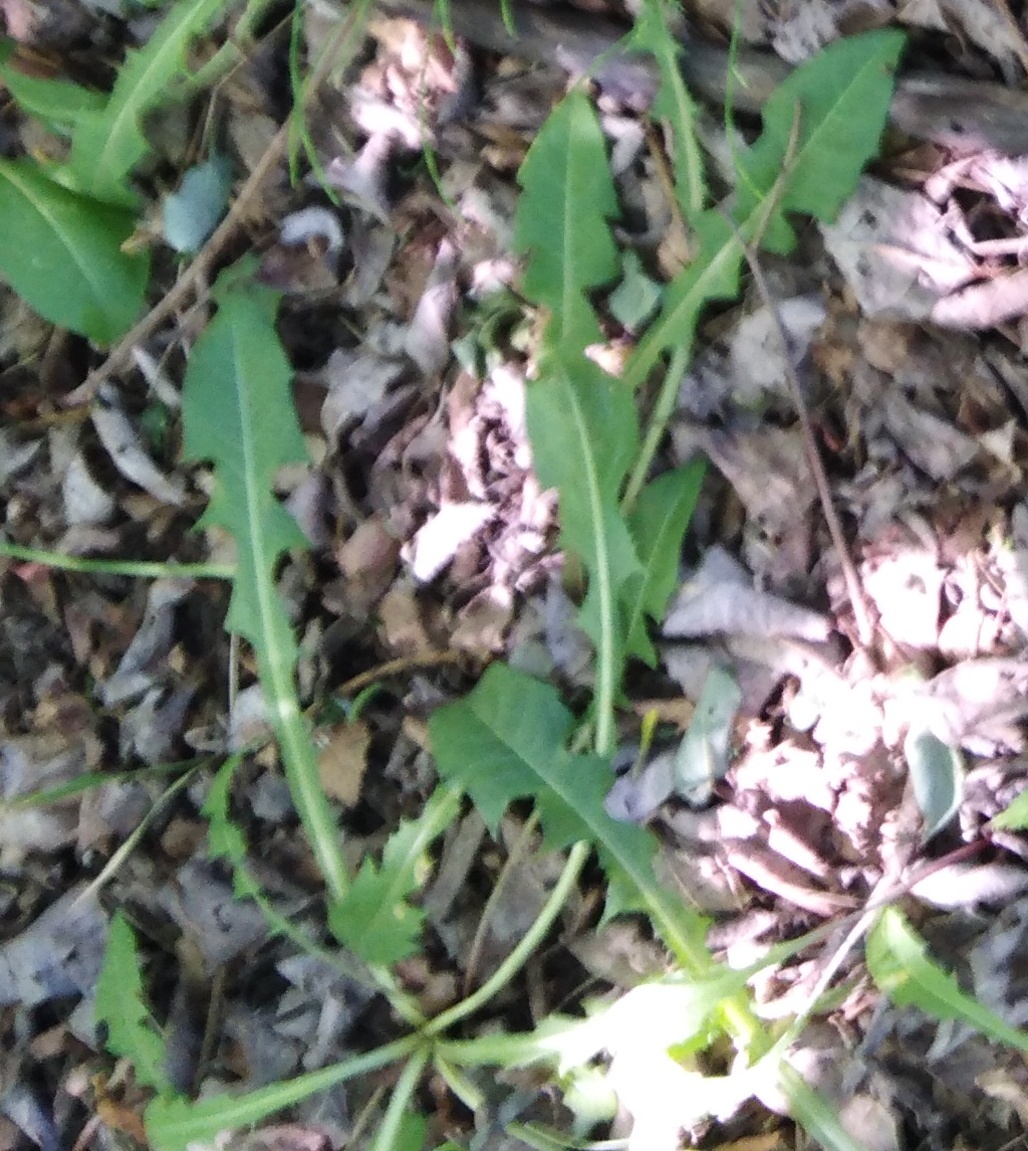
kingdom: Plantae
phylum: Tracheophyta
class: Magnoliopsida
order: Asterales
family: Asteraceae
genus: Taraxacum
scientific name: Taraxacum officinale
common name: Common dandelion
